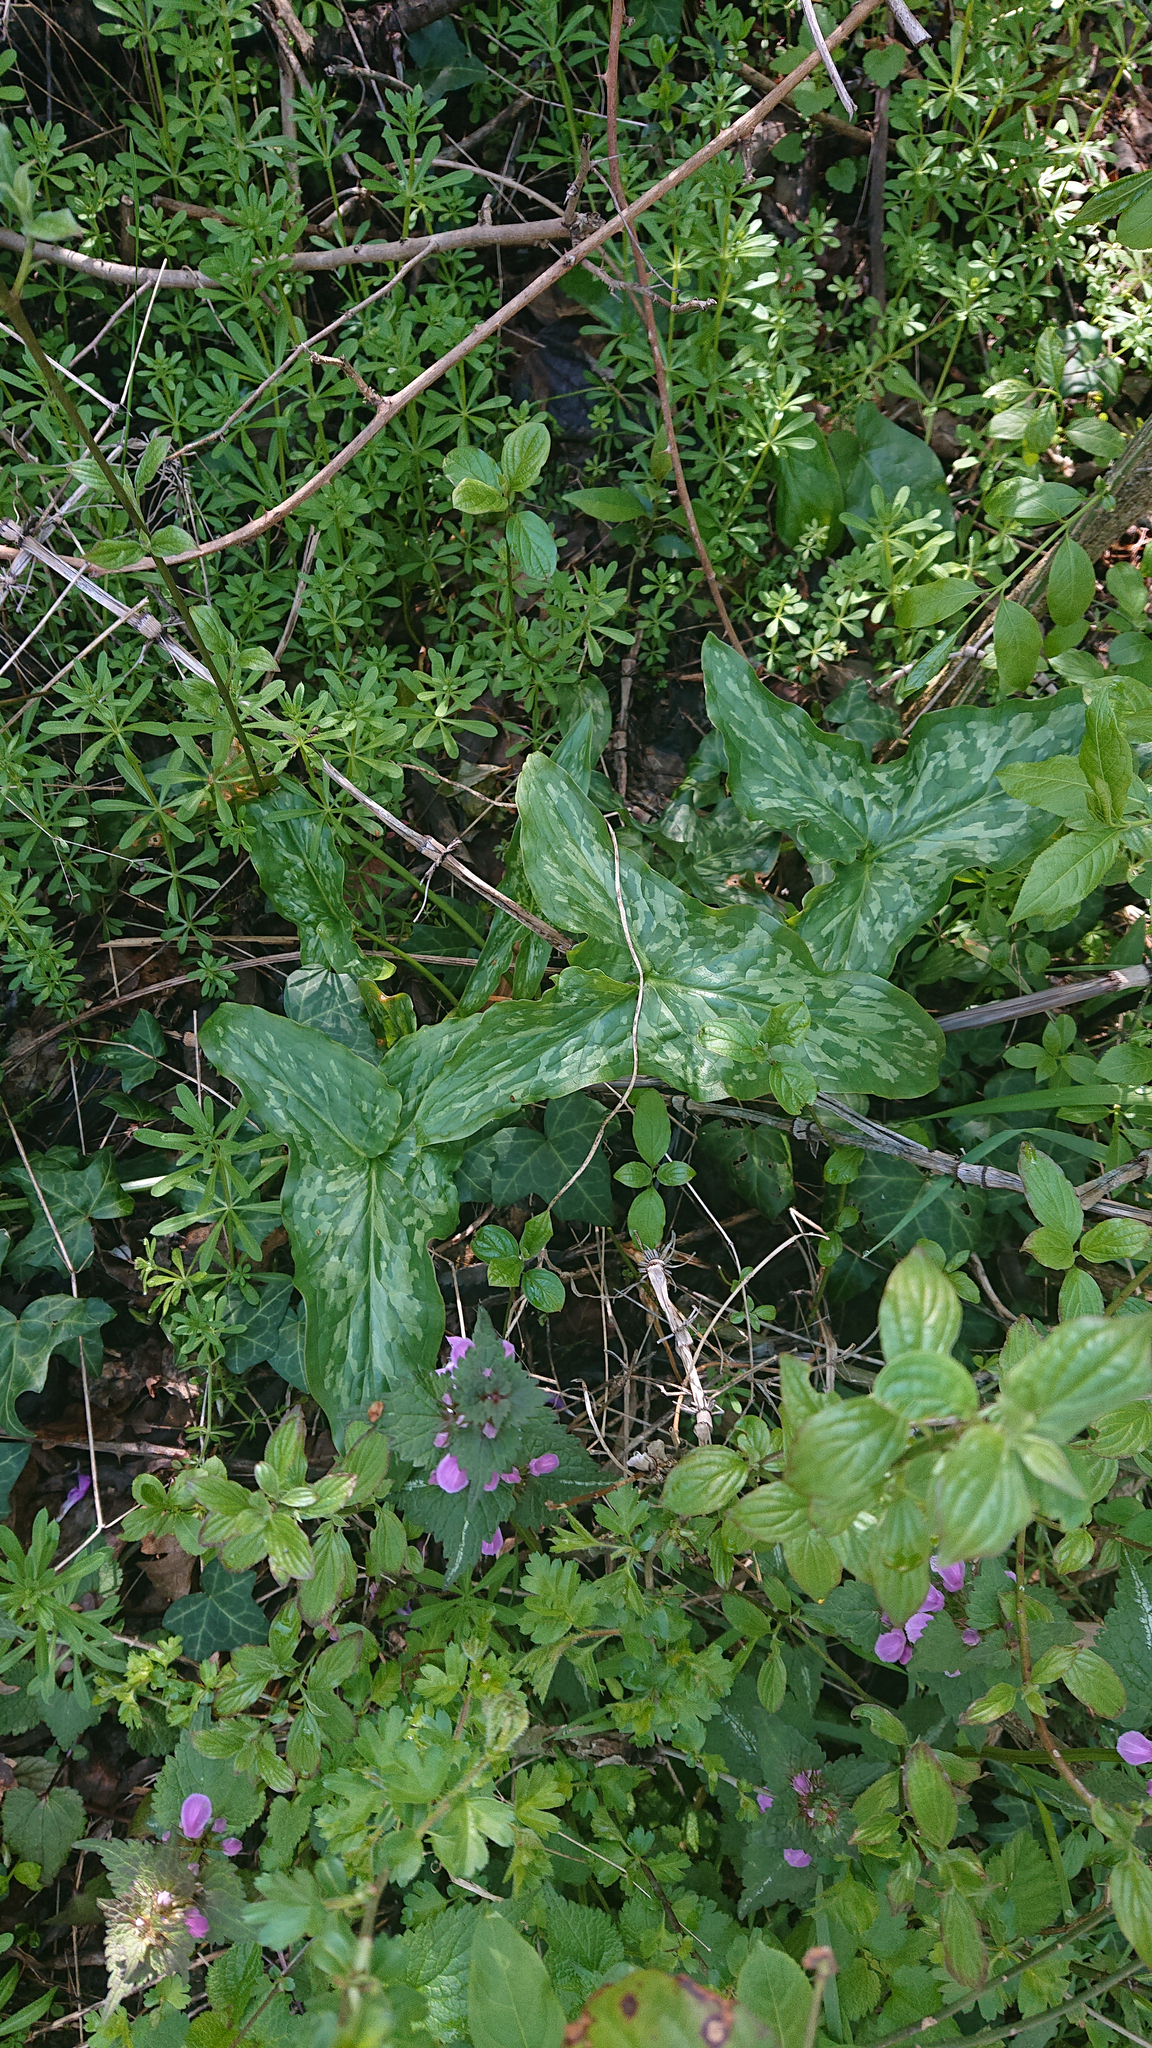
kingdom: Plantae
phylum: Tracheophyta
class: Liliopsida
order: Alismatales
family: Araceae
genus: Arum
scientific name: Arum italicum
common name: Italian lords-and-ladies
